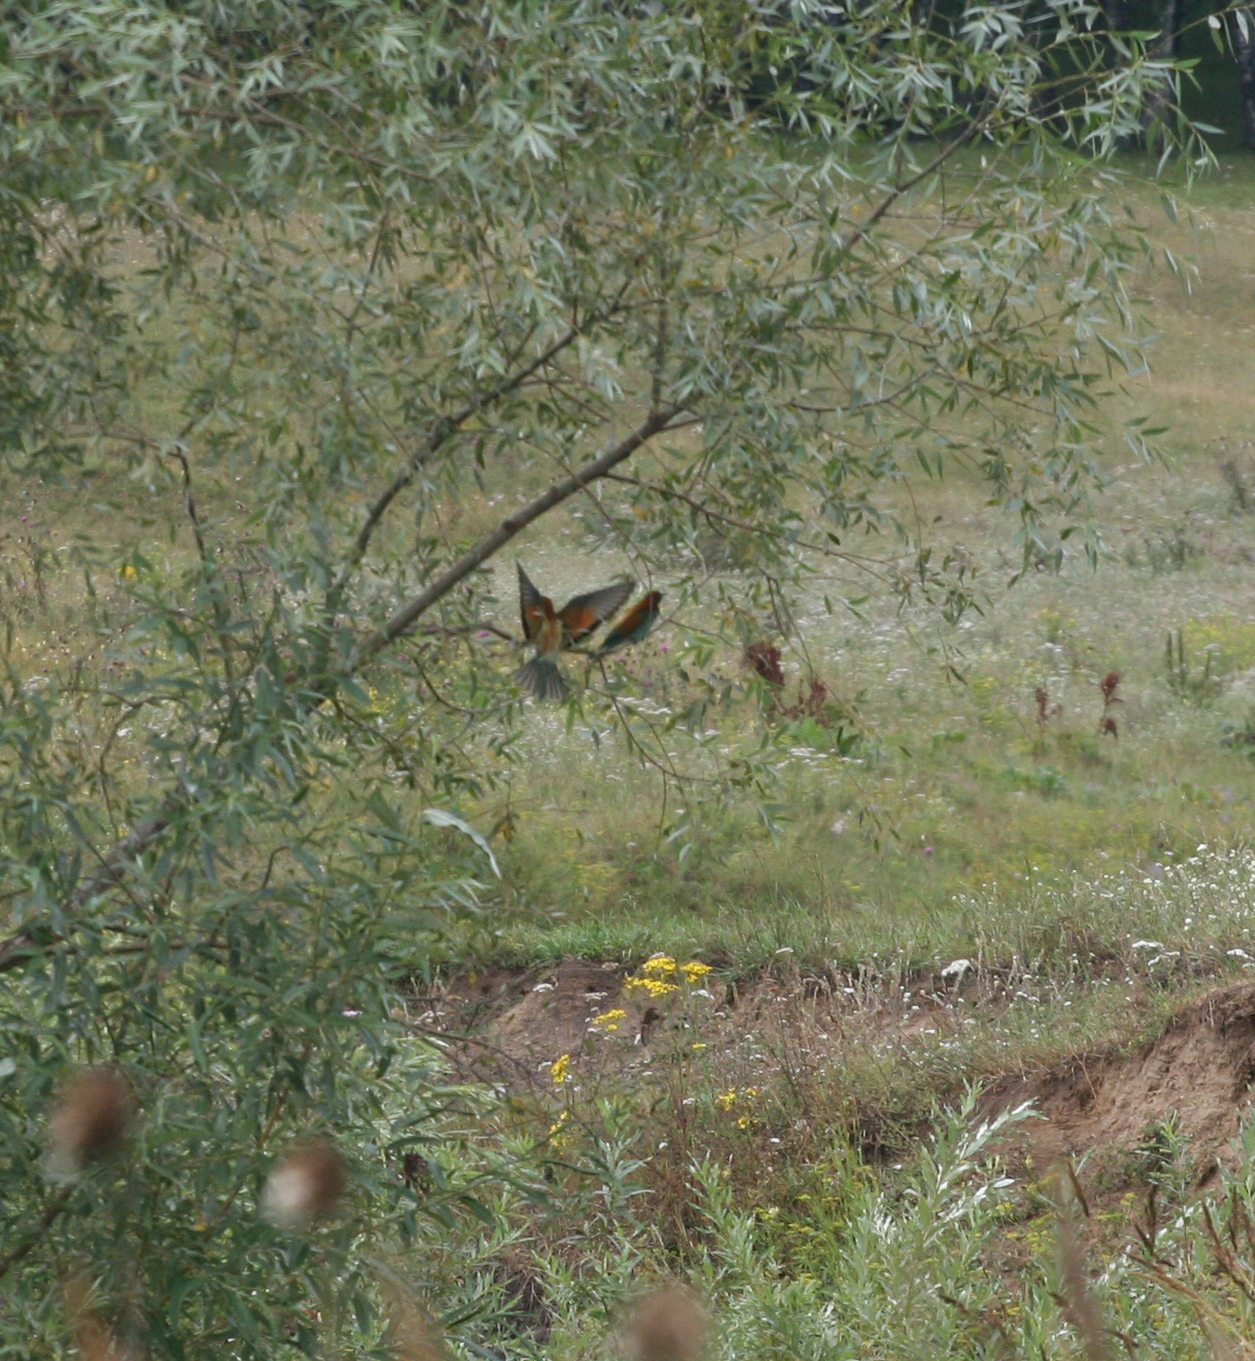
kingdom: Animalia
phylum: Chordata
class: Aves
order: Coraciiformes
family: Meropidae
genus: Merops
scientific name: Merops apiaster
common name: European bee-eater
